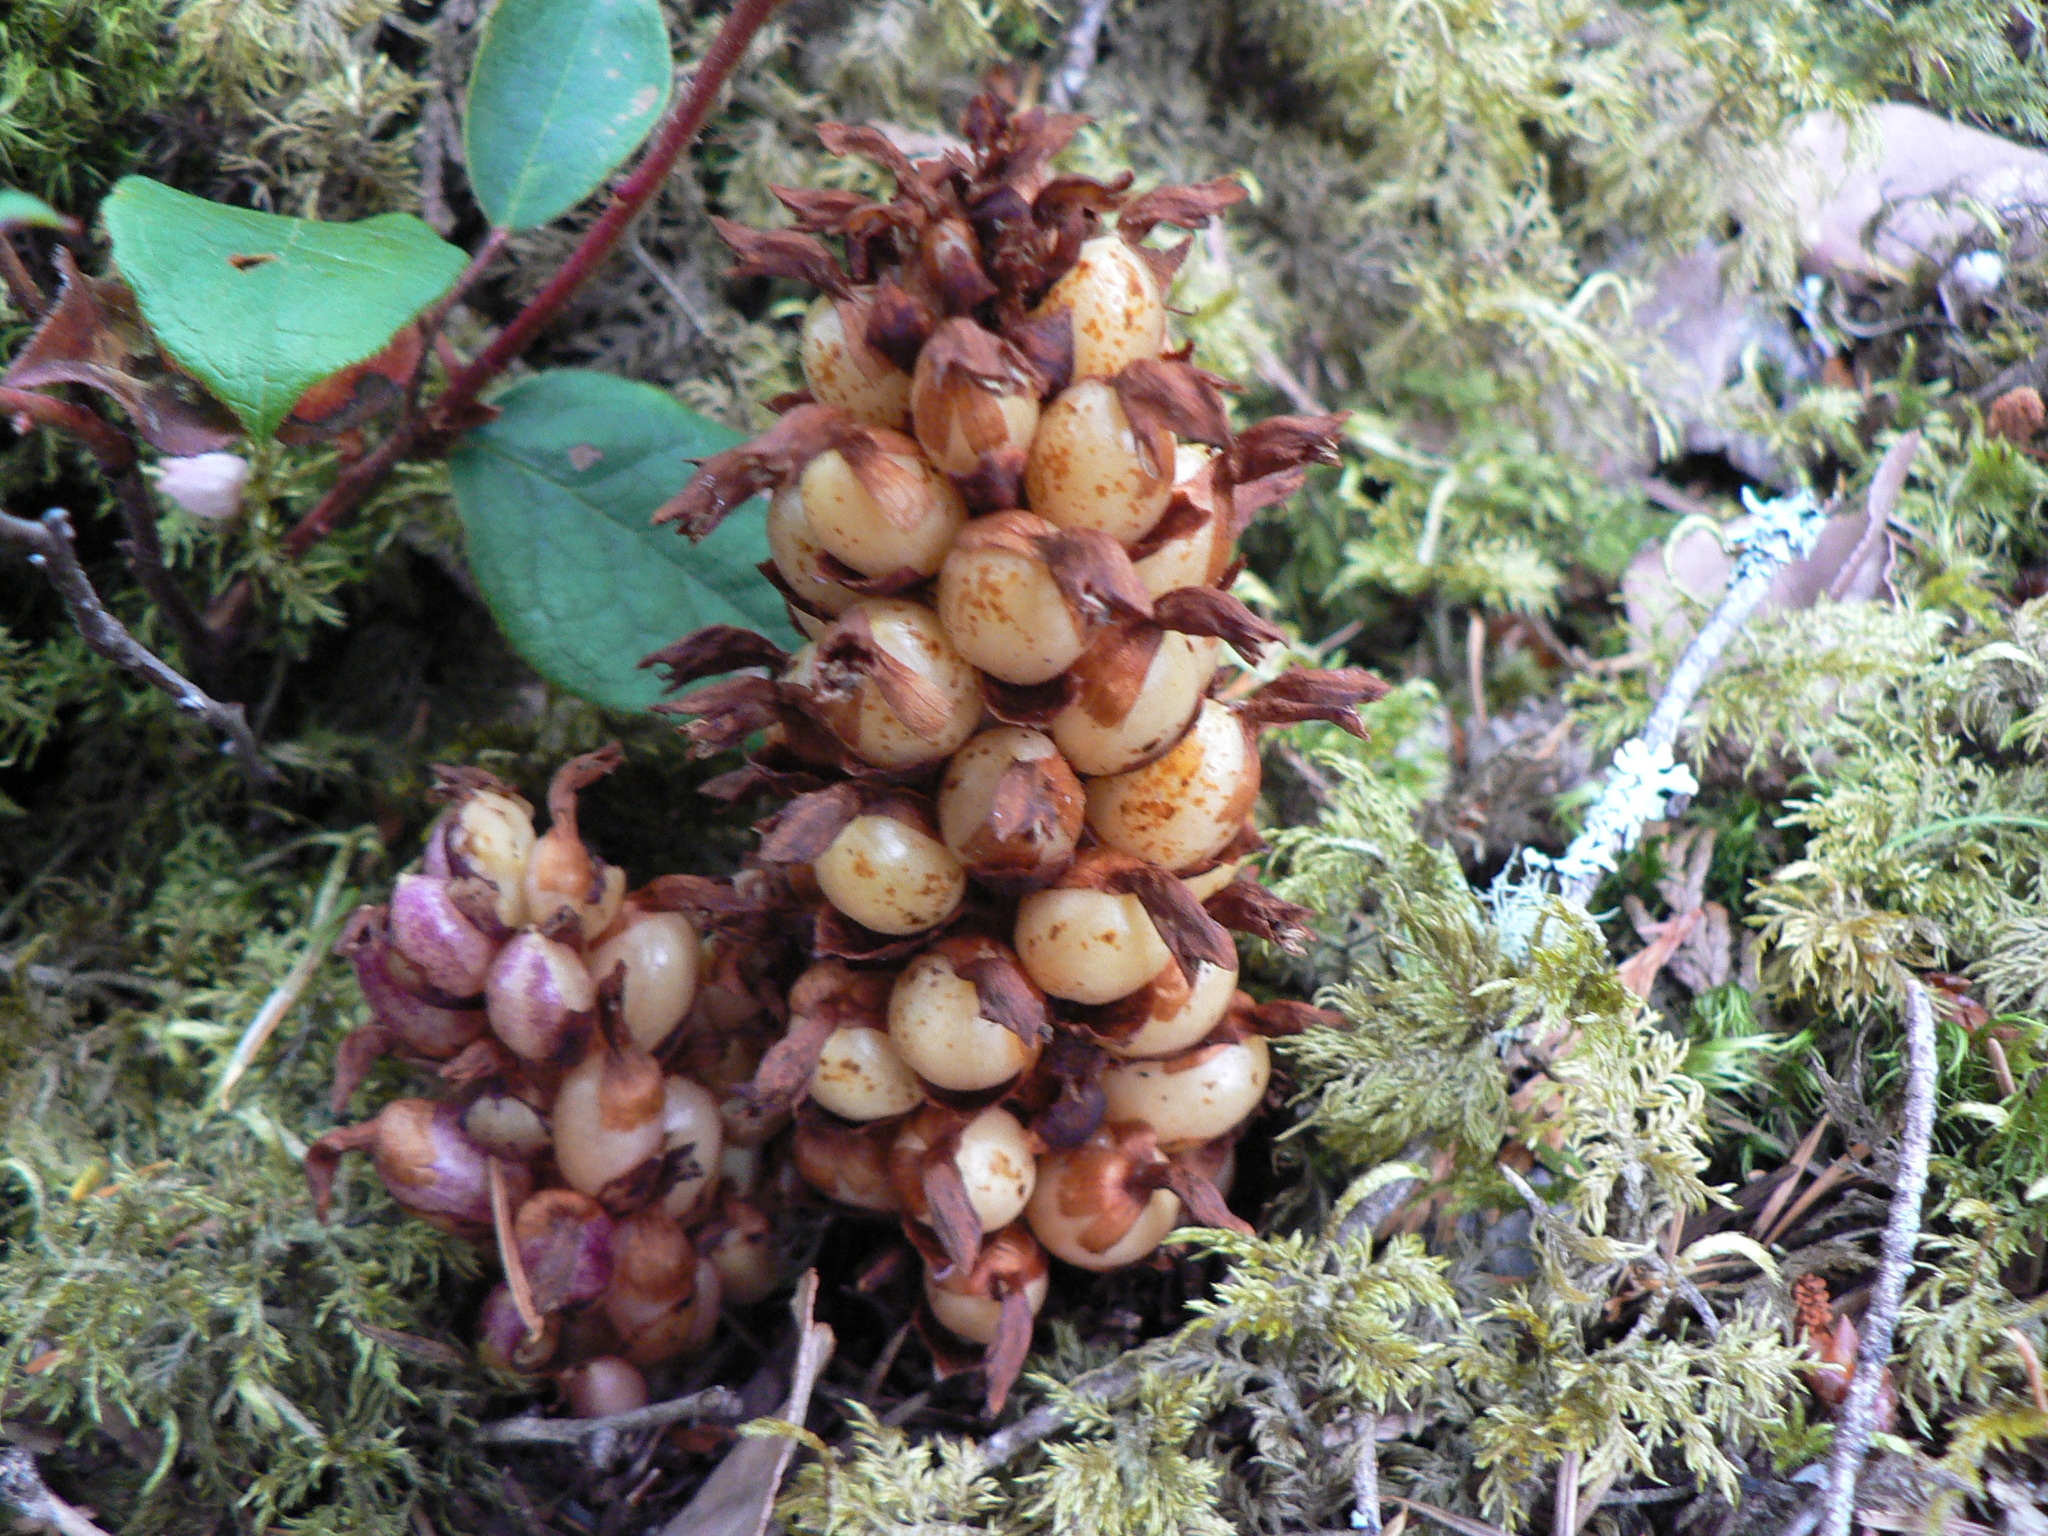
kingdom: Plantae
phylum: Tracheophyta
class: Magnoliopsida
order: Lamiales
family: Orobanchaceae
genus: Kopsiopsis
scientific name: Kopsiopsis hookeri
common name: Hooker's groundcone
